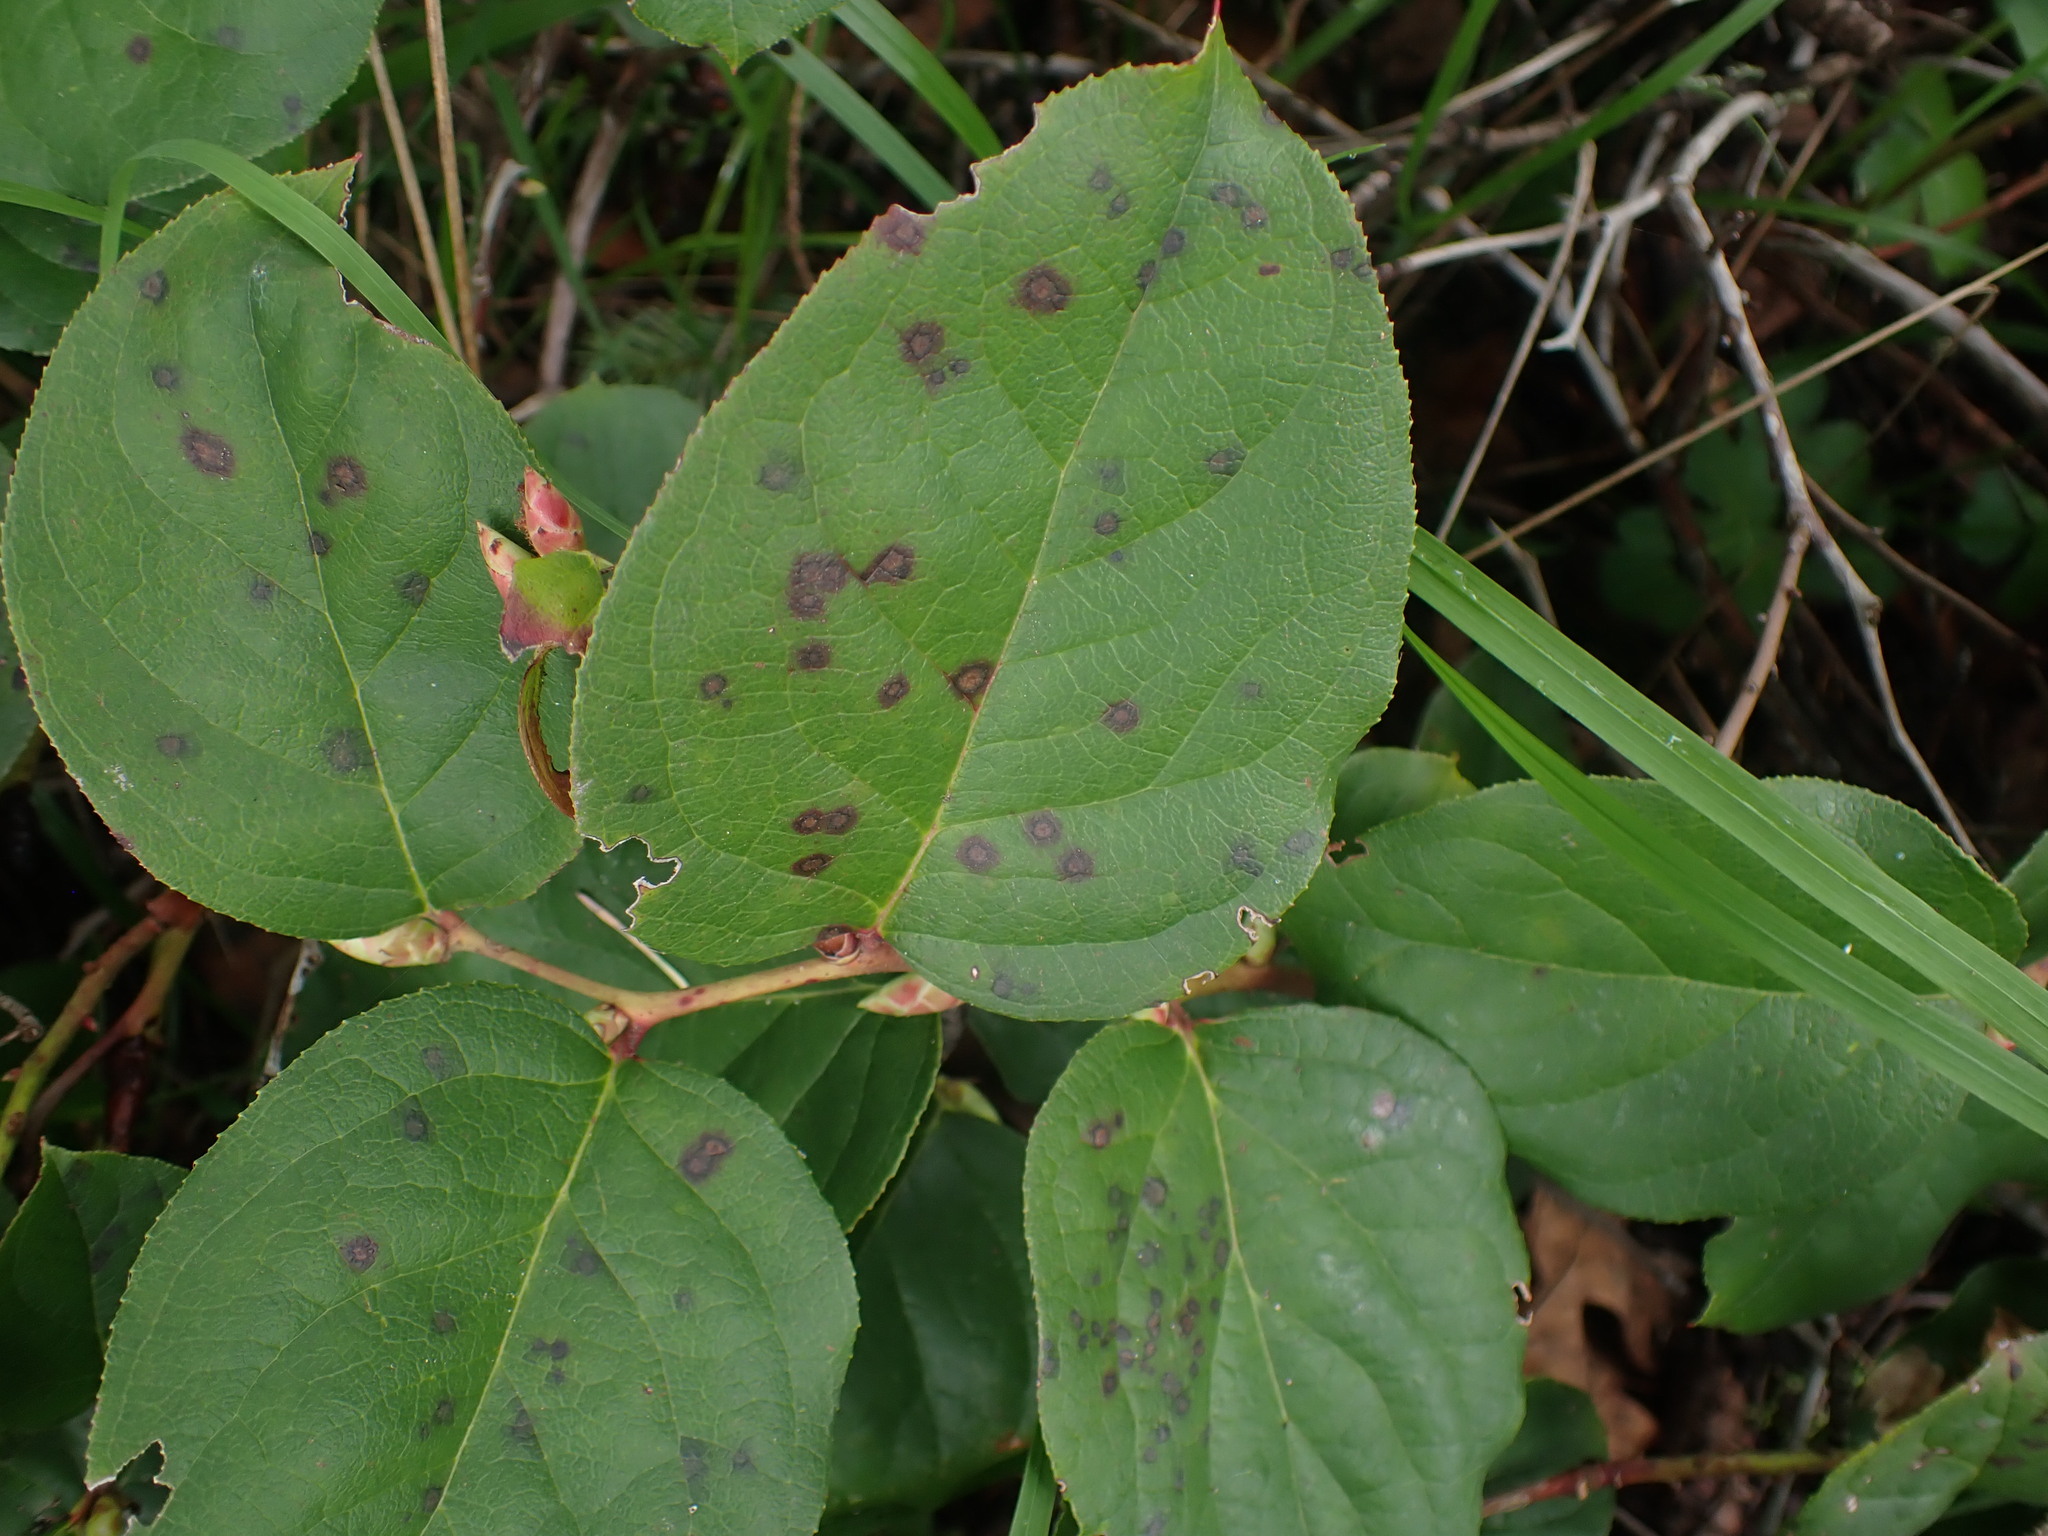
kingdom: Plantae
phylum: Tracheophyta
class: Magnoliopsida
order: Ericales
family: Ericaceae
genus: Gaultheria
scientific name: Gaultheria shallon
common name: Shallon
